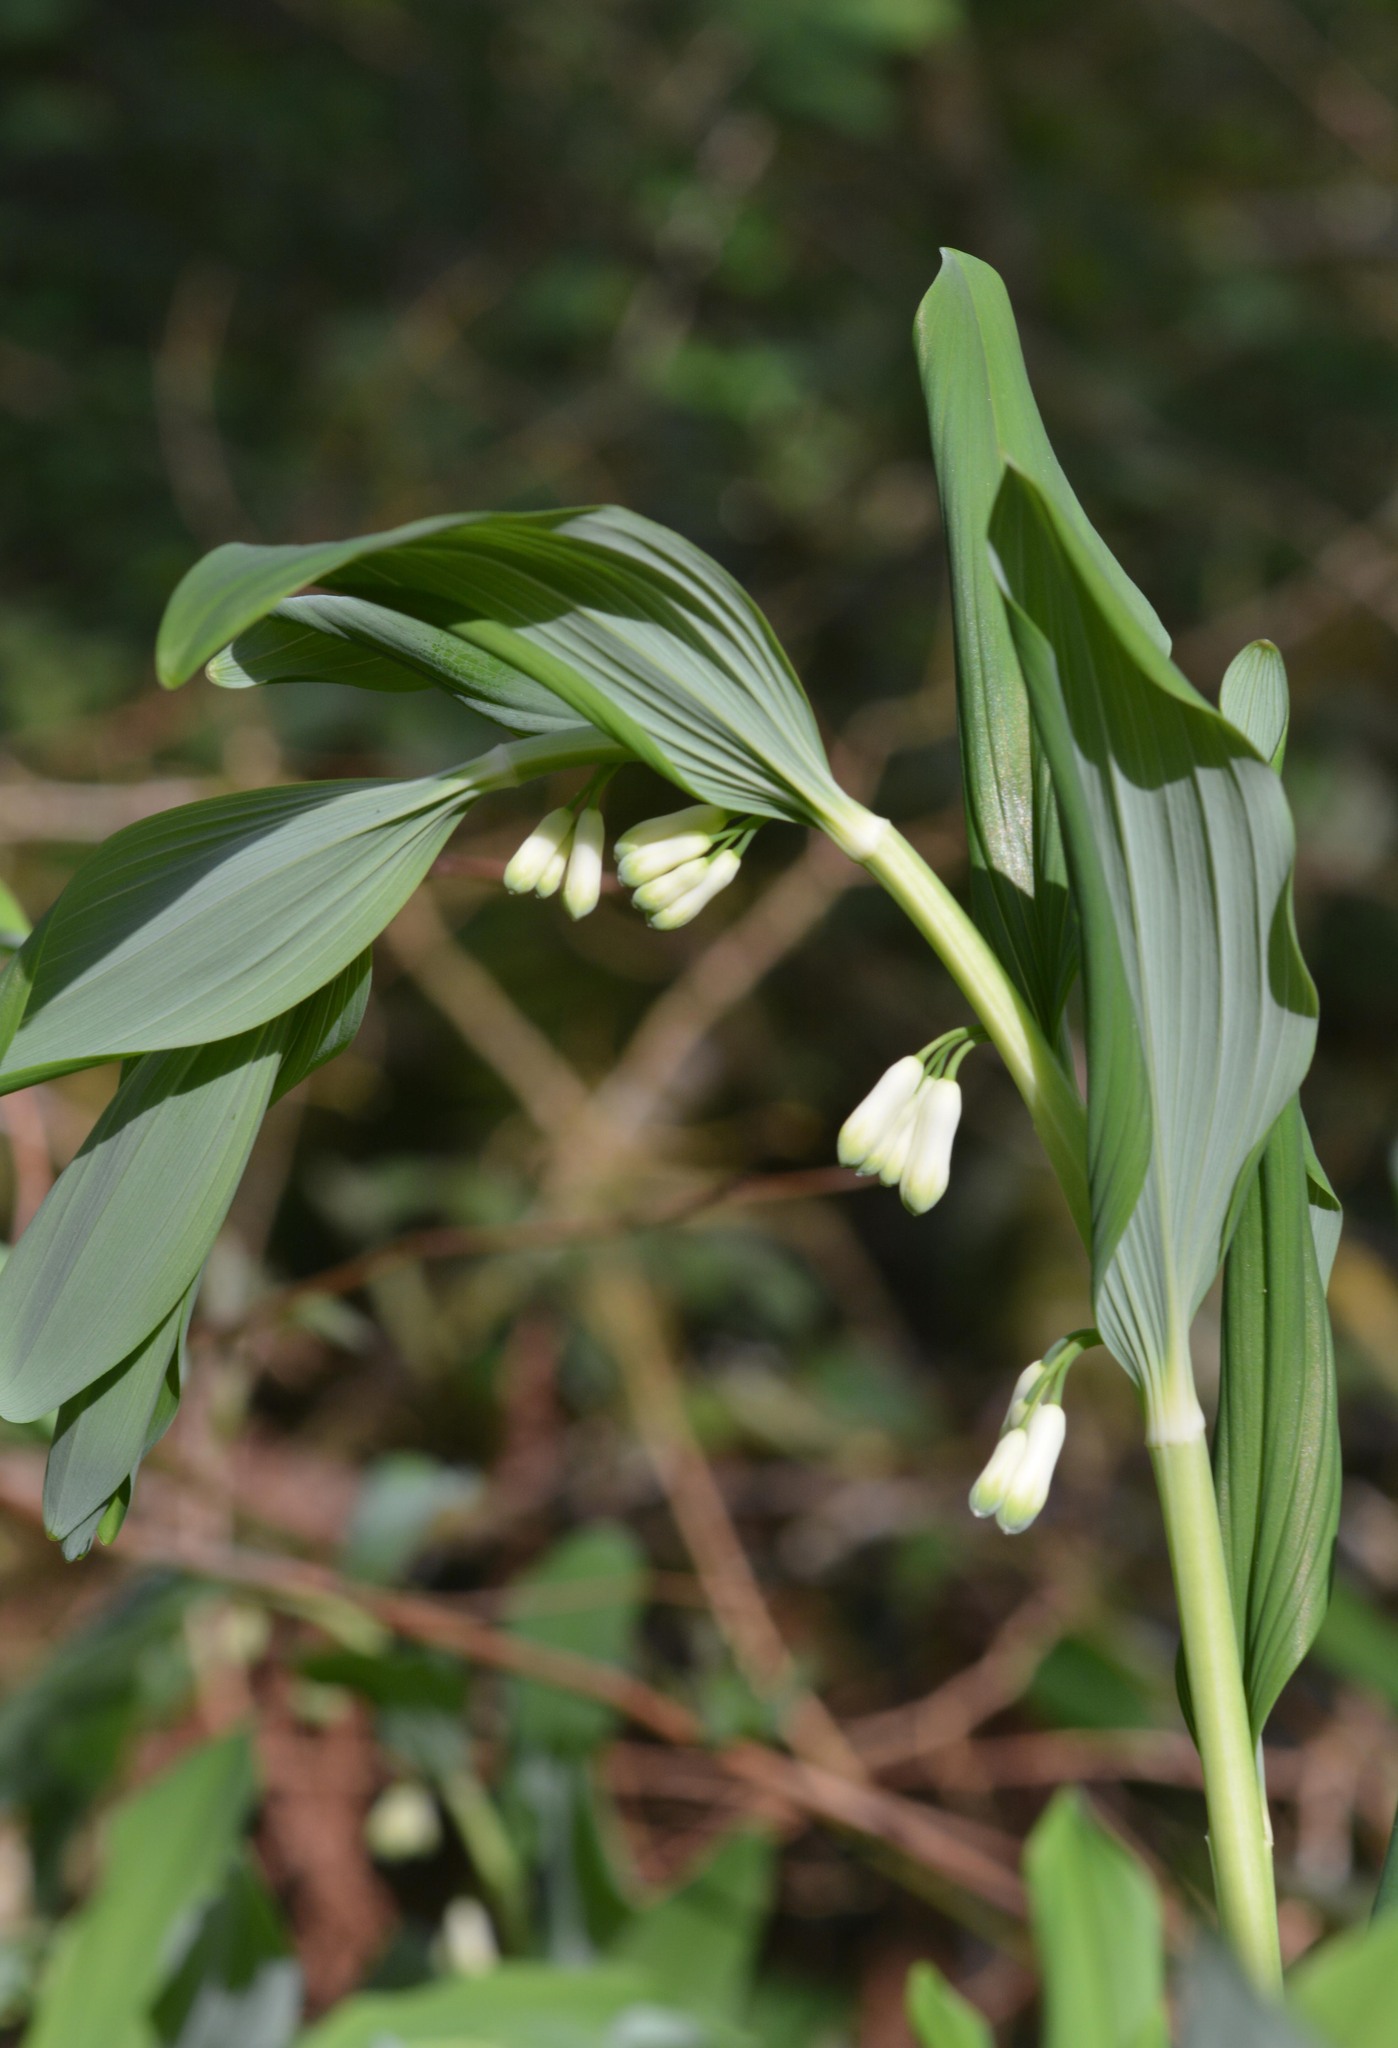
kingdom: Plantae
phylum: Tracheophyta
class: Liliopsida
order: Asparagales
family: Asparagaceae
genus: Polygonatum
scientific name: Polygonatum multiflorum
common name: Solomon's-seal
